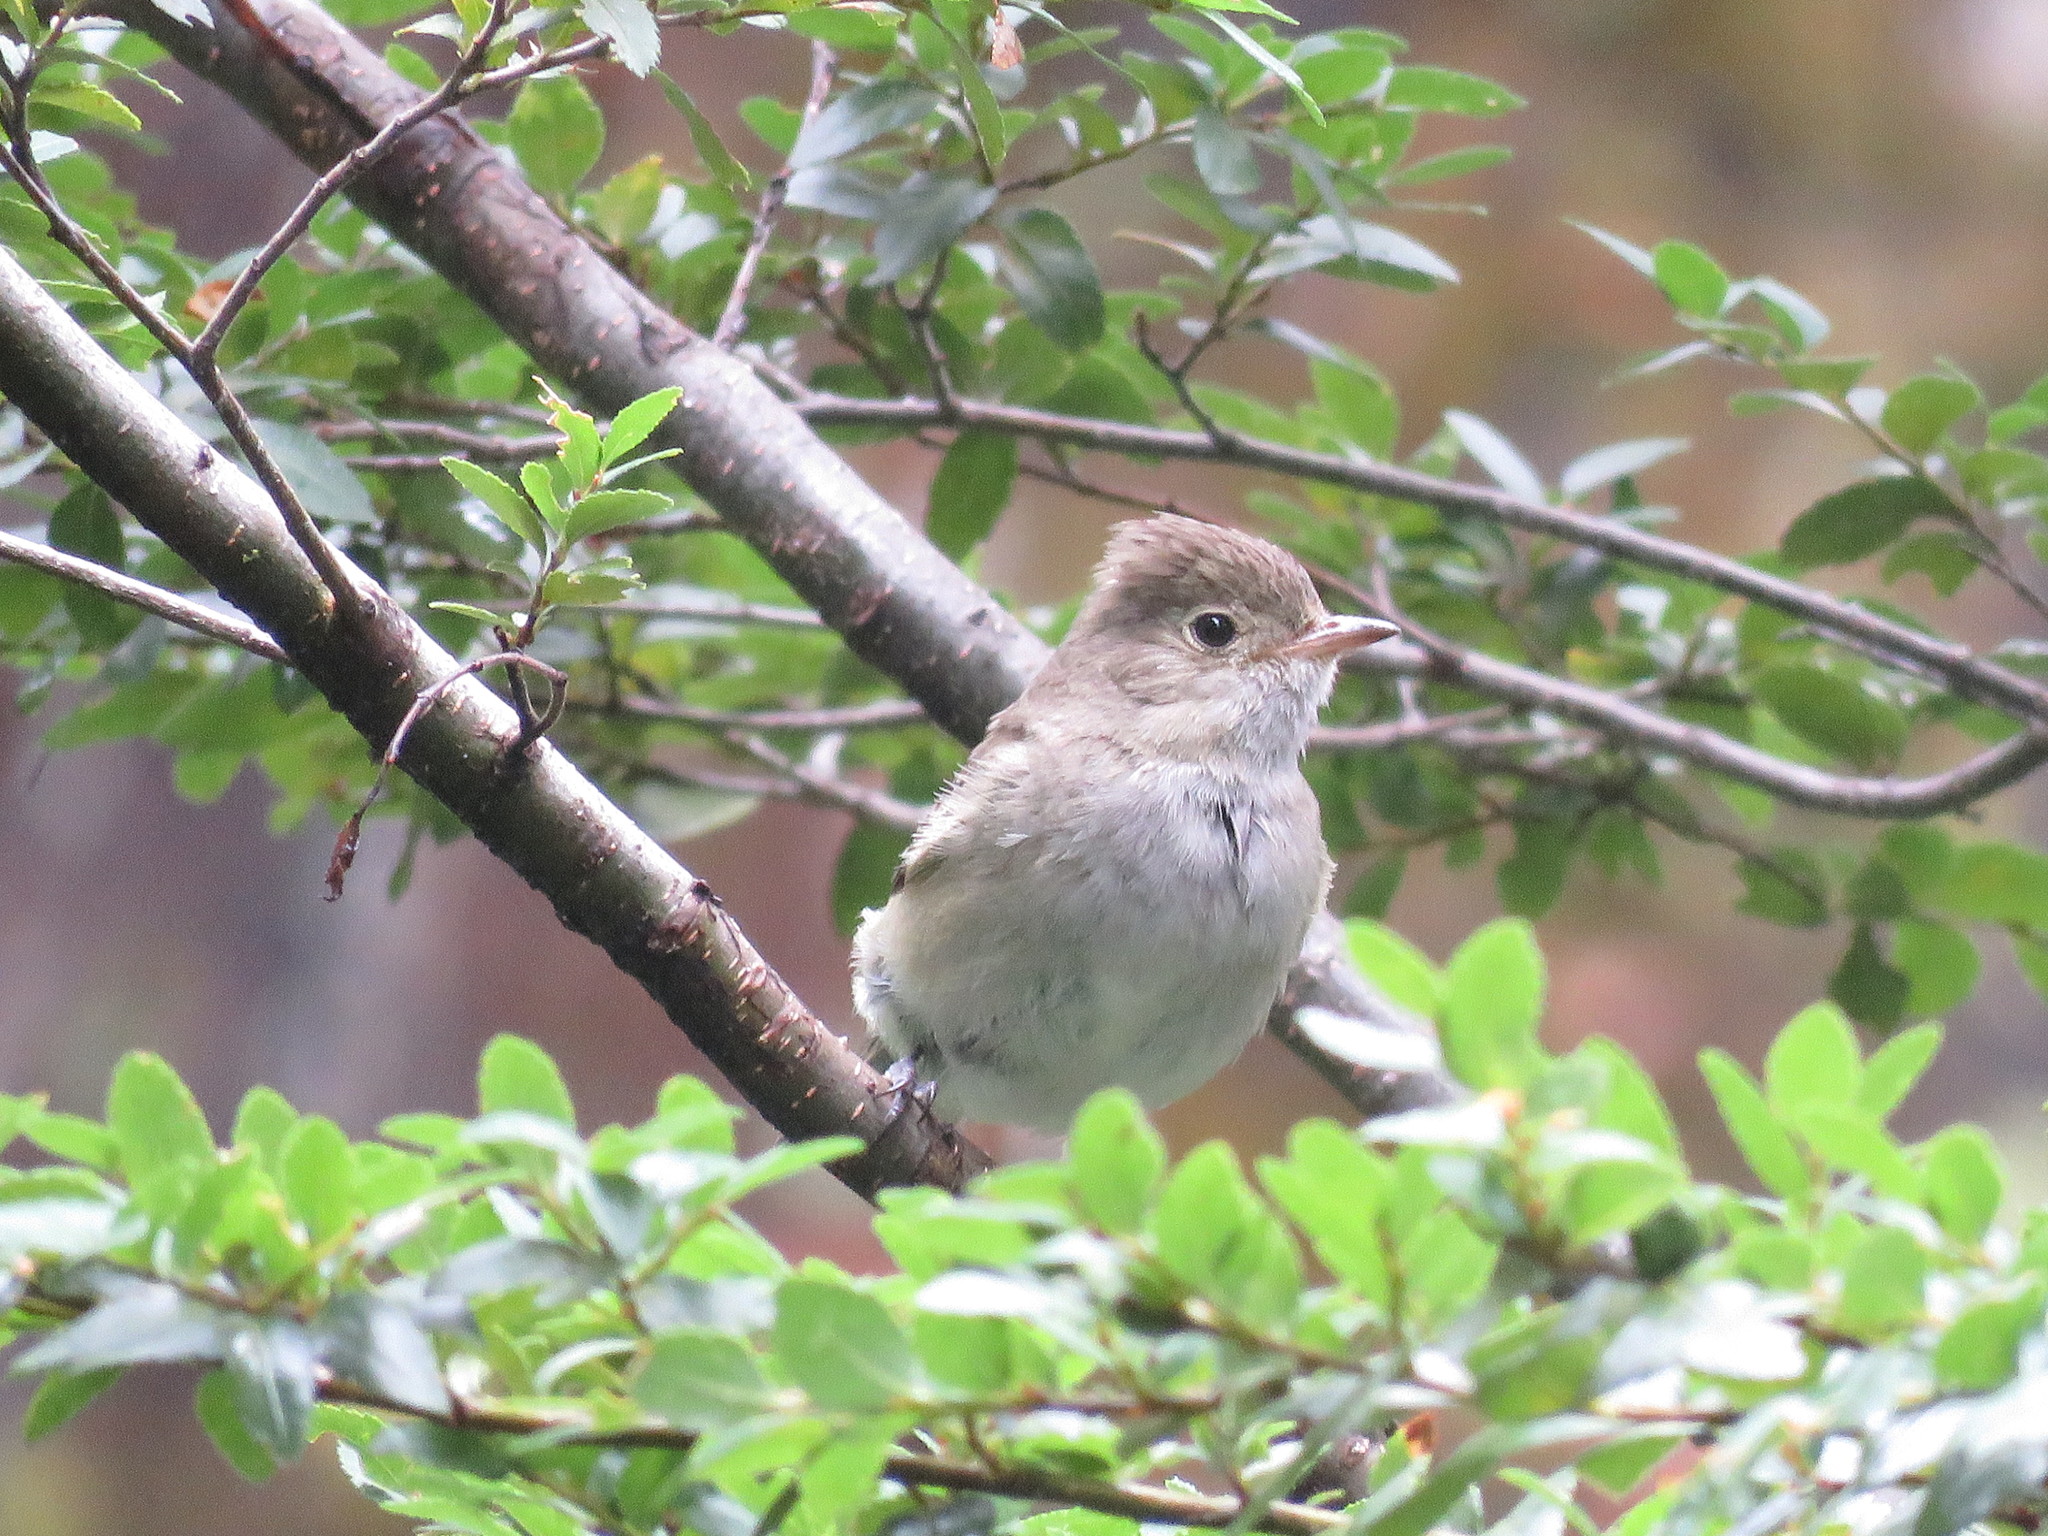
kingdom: Animalia
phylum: Chordata
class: Aves
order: Passeriformes
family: Tyrannidae
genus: Elaenia
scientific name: Elaenia albiceps
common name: White-crested elaenia
